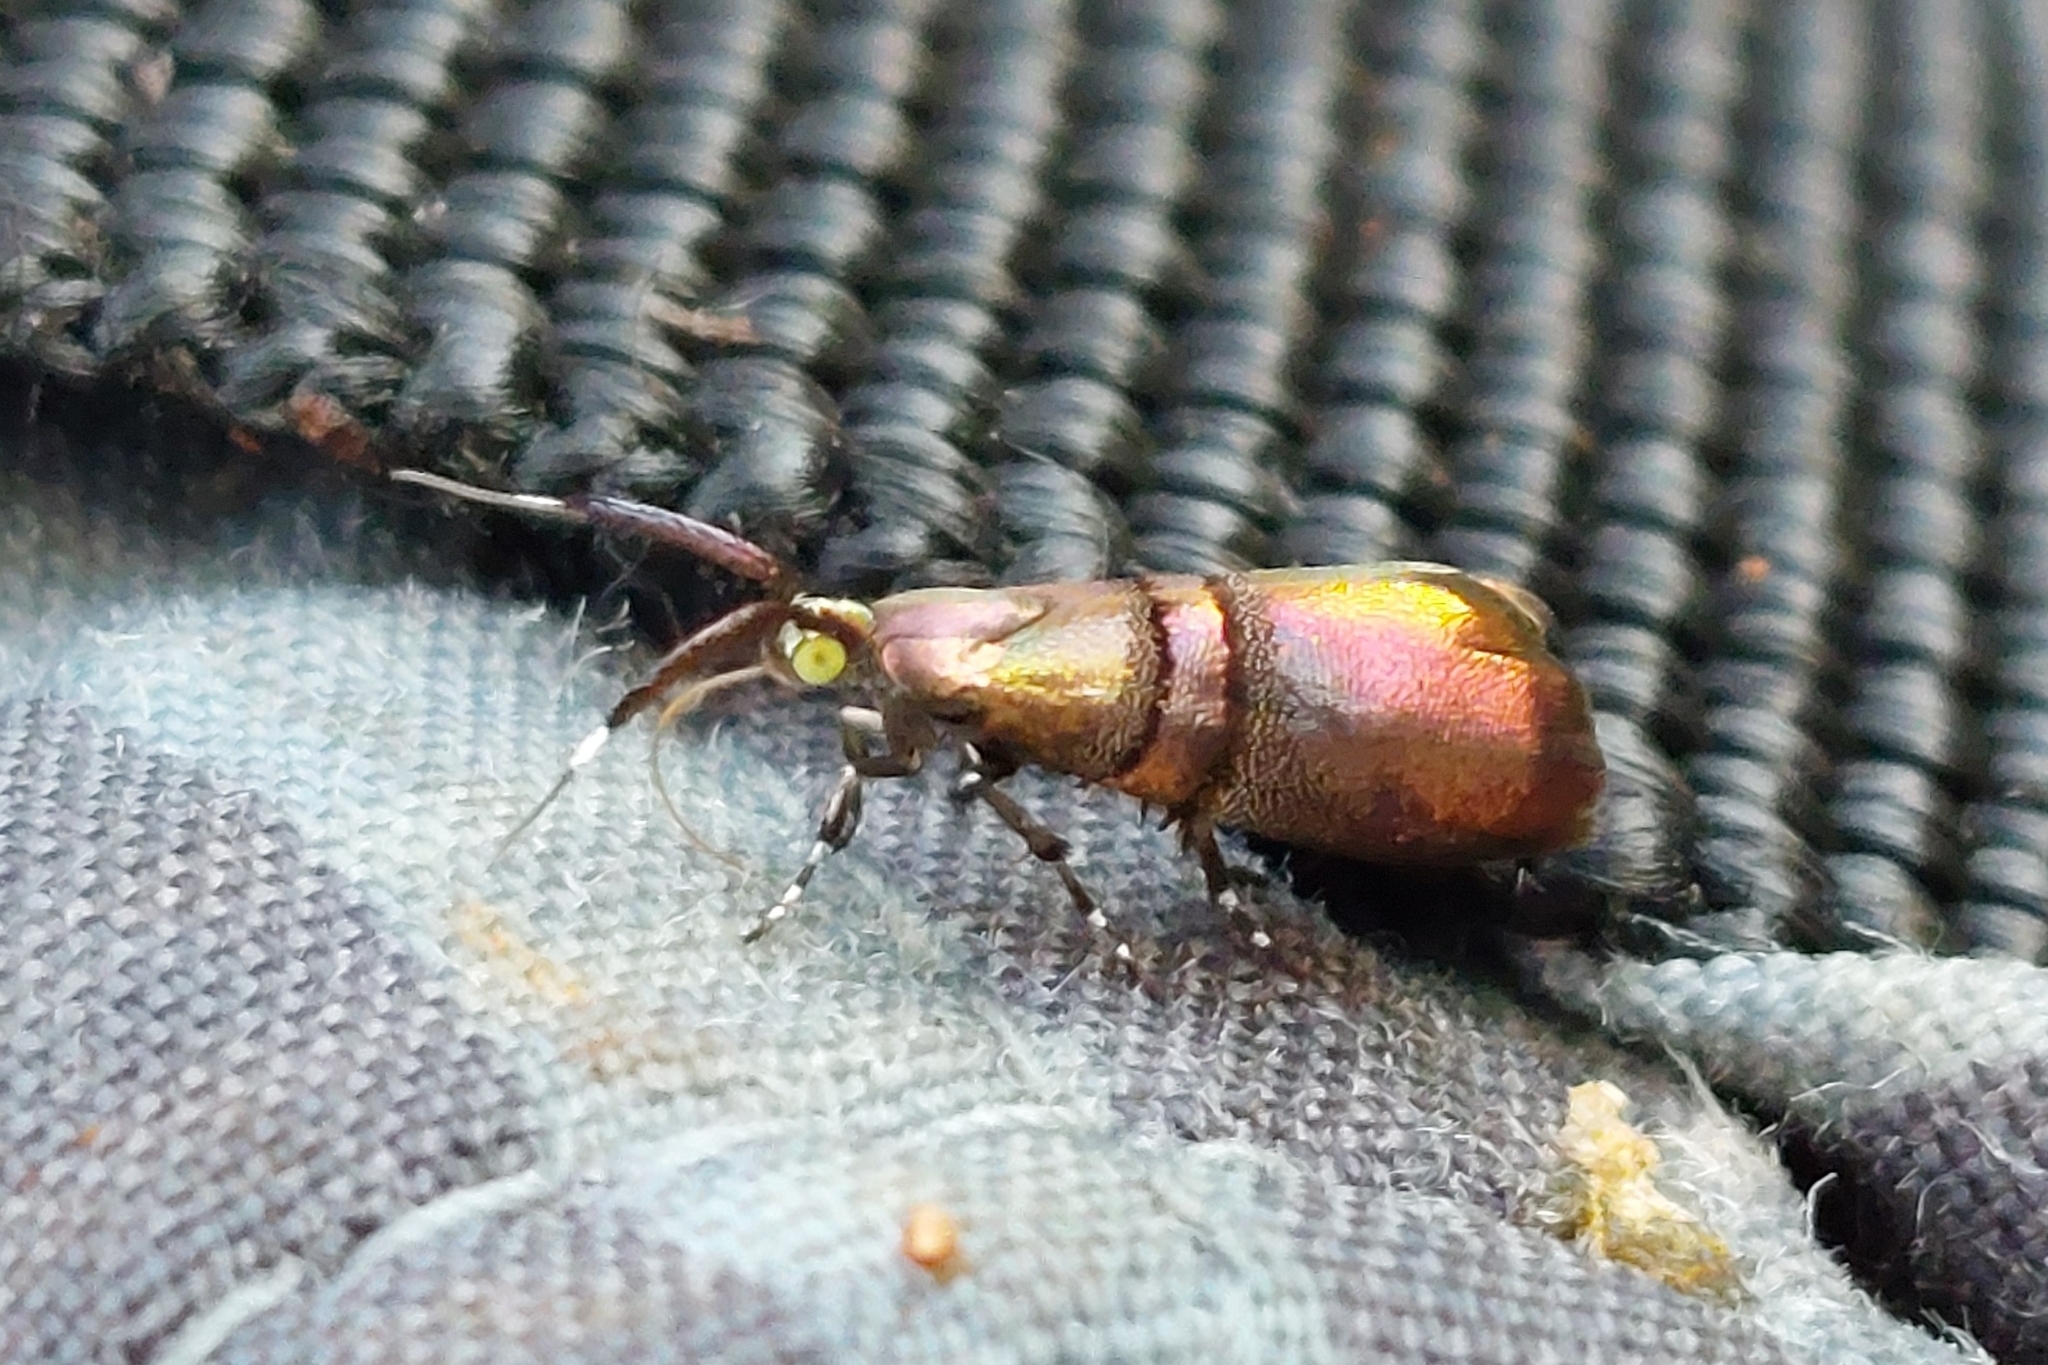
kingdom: Animalia
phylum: Arthropoda
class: Insecta
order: Lepidoptera
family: Choreutidae
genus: Tortyra
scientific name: Tortyra slossonia
